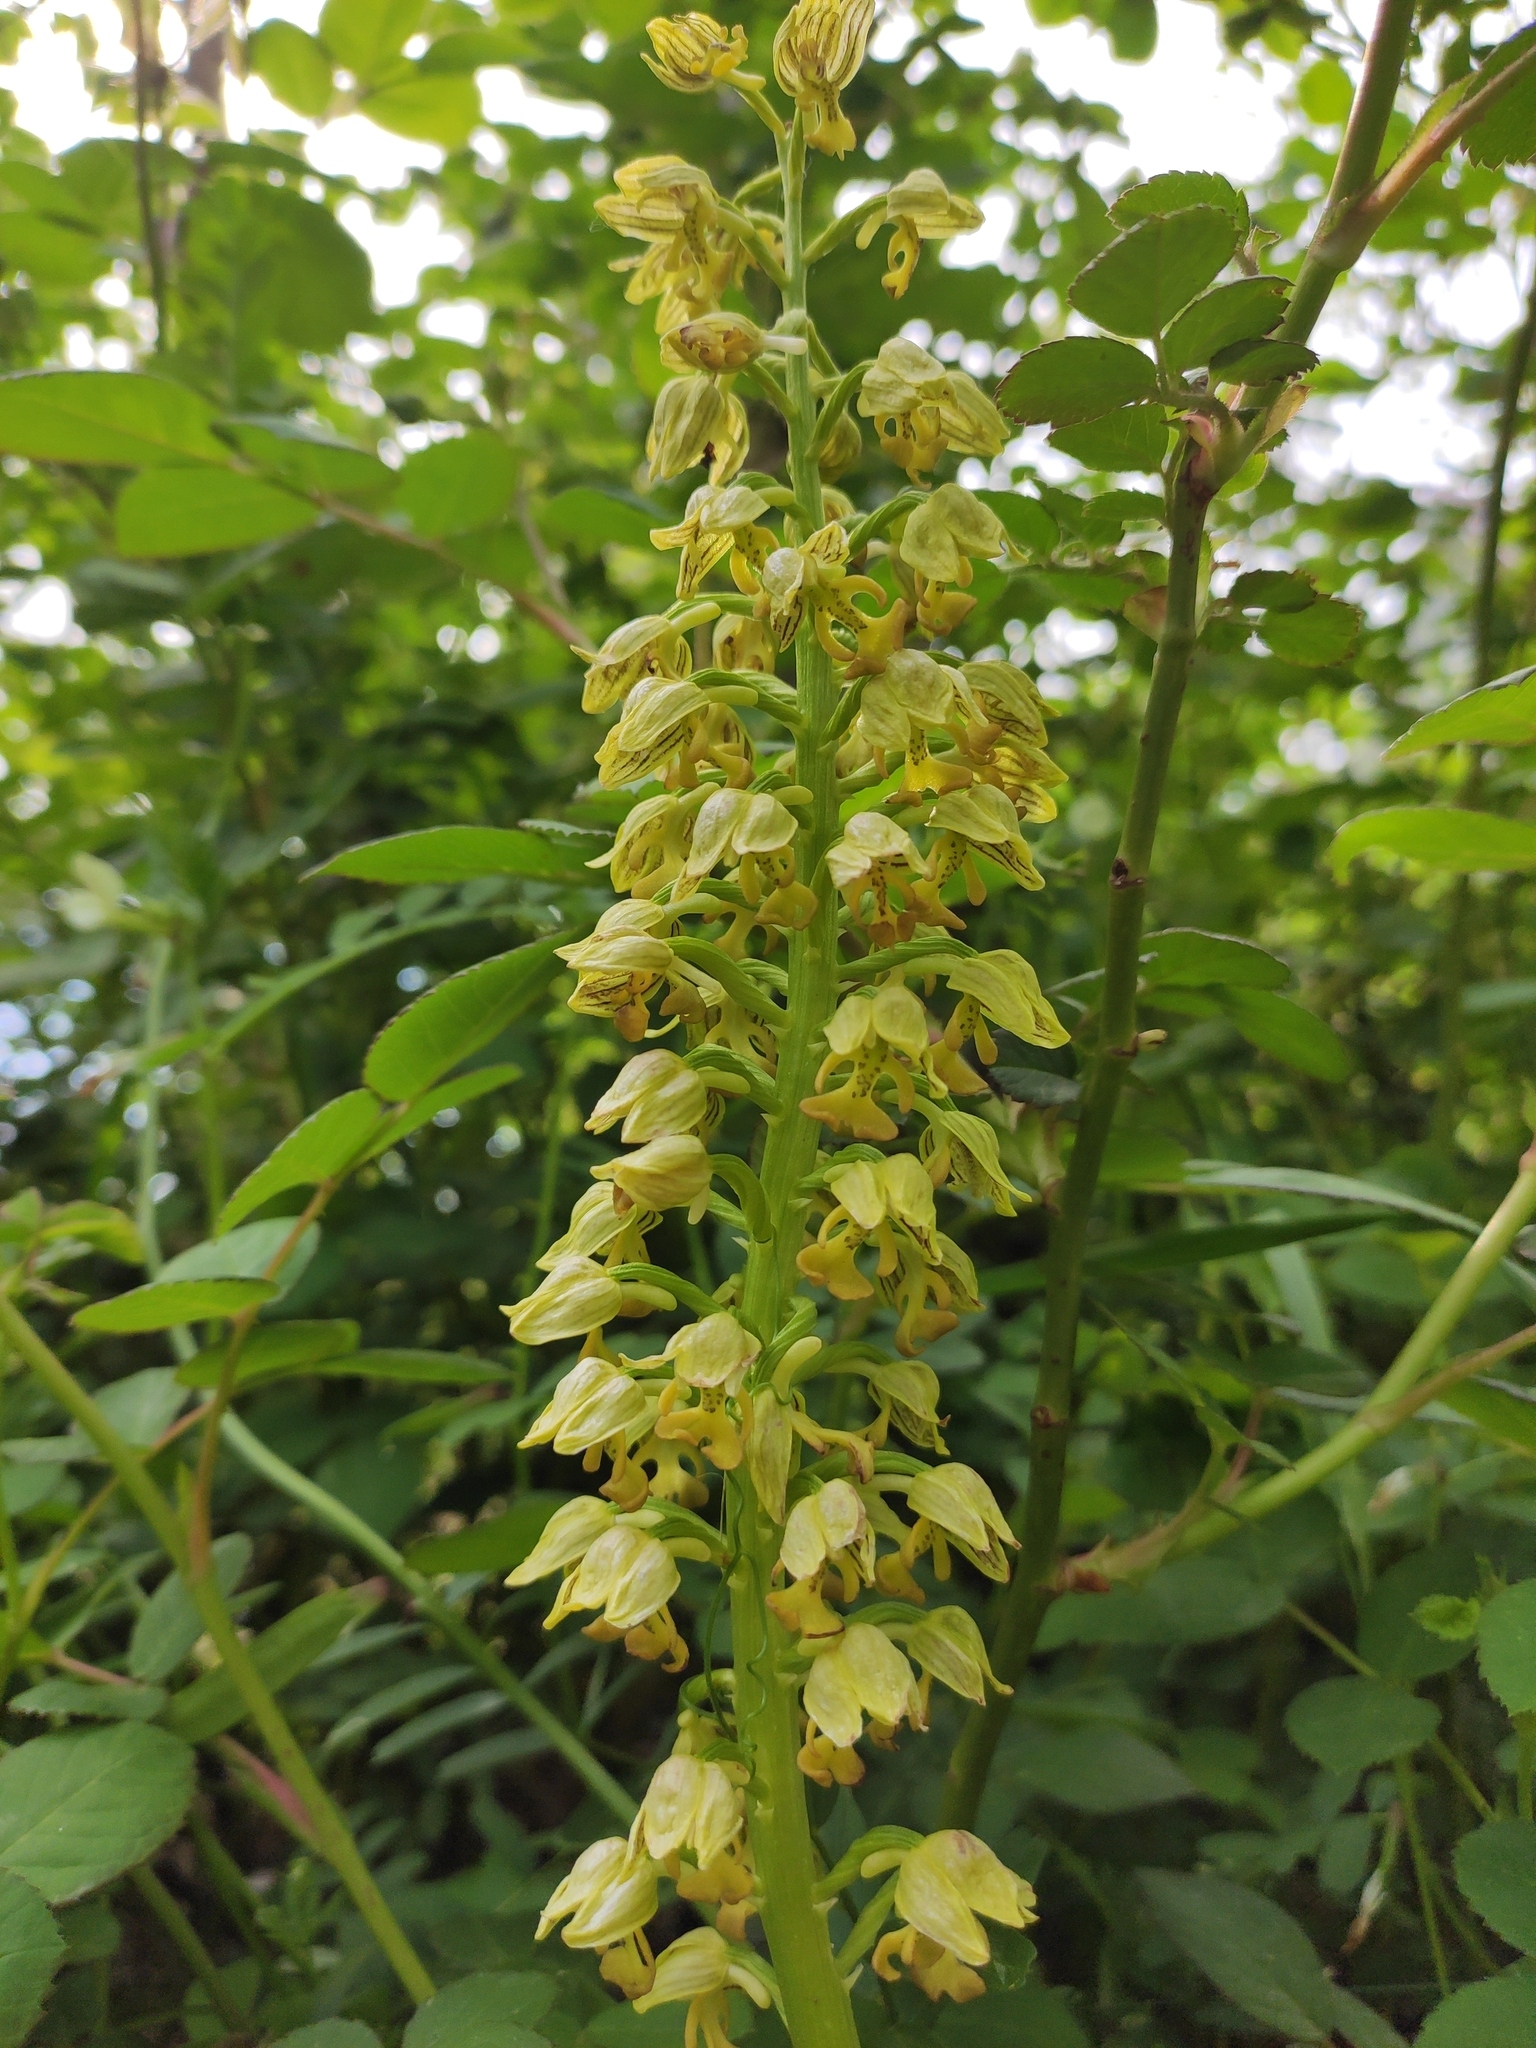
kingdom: Plantae
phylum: Tracheophyta
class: Liliopsida
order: Asparagales
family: Orchidaceae
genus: Orchis
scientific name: Orchis punctulata
